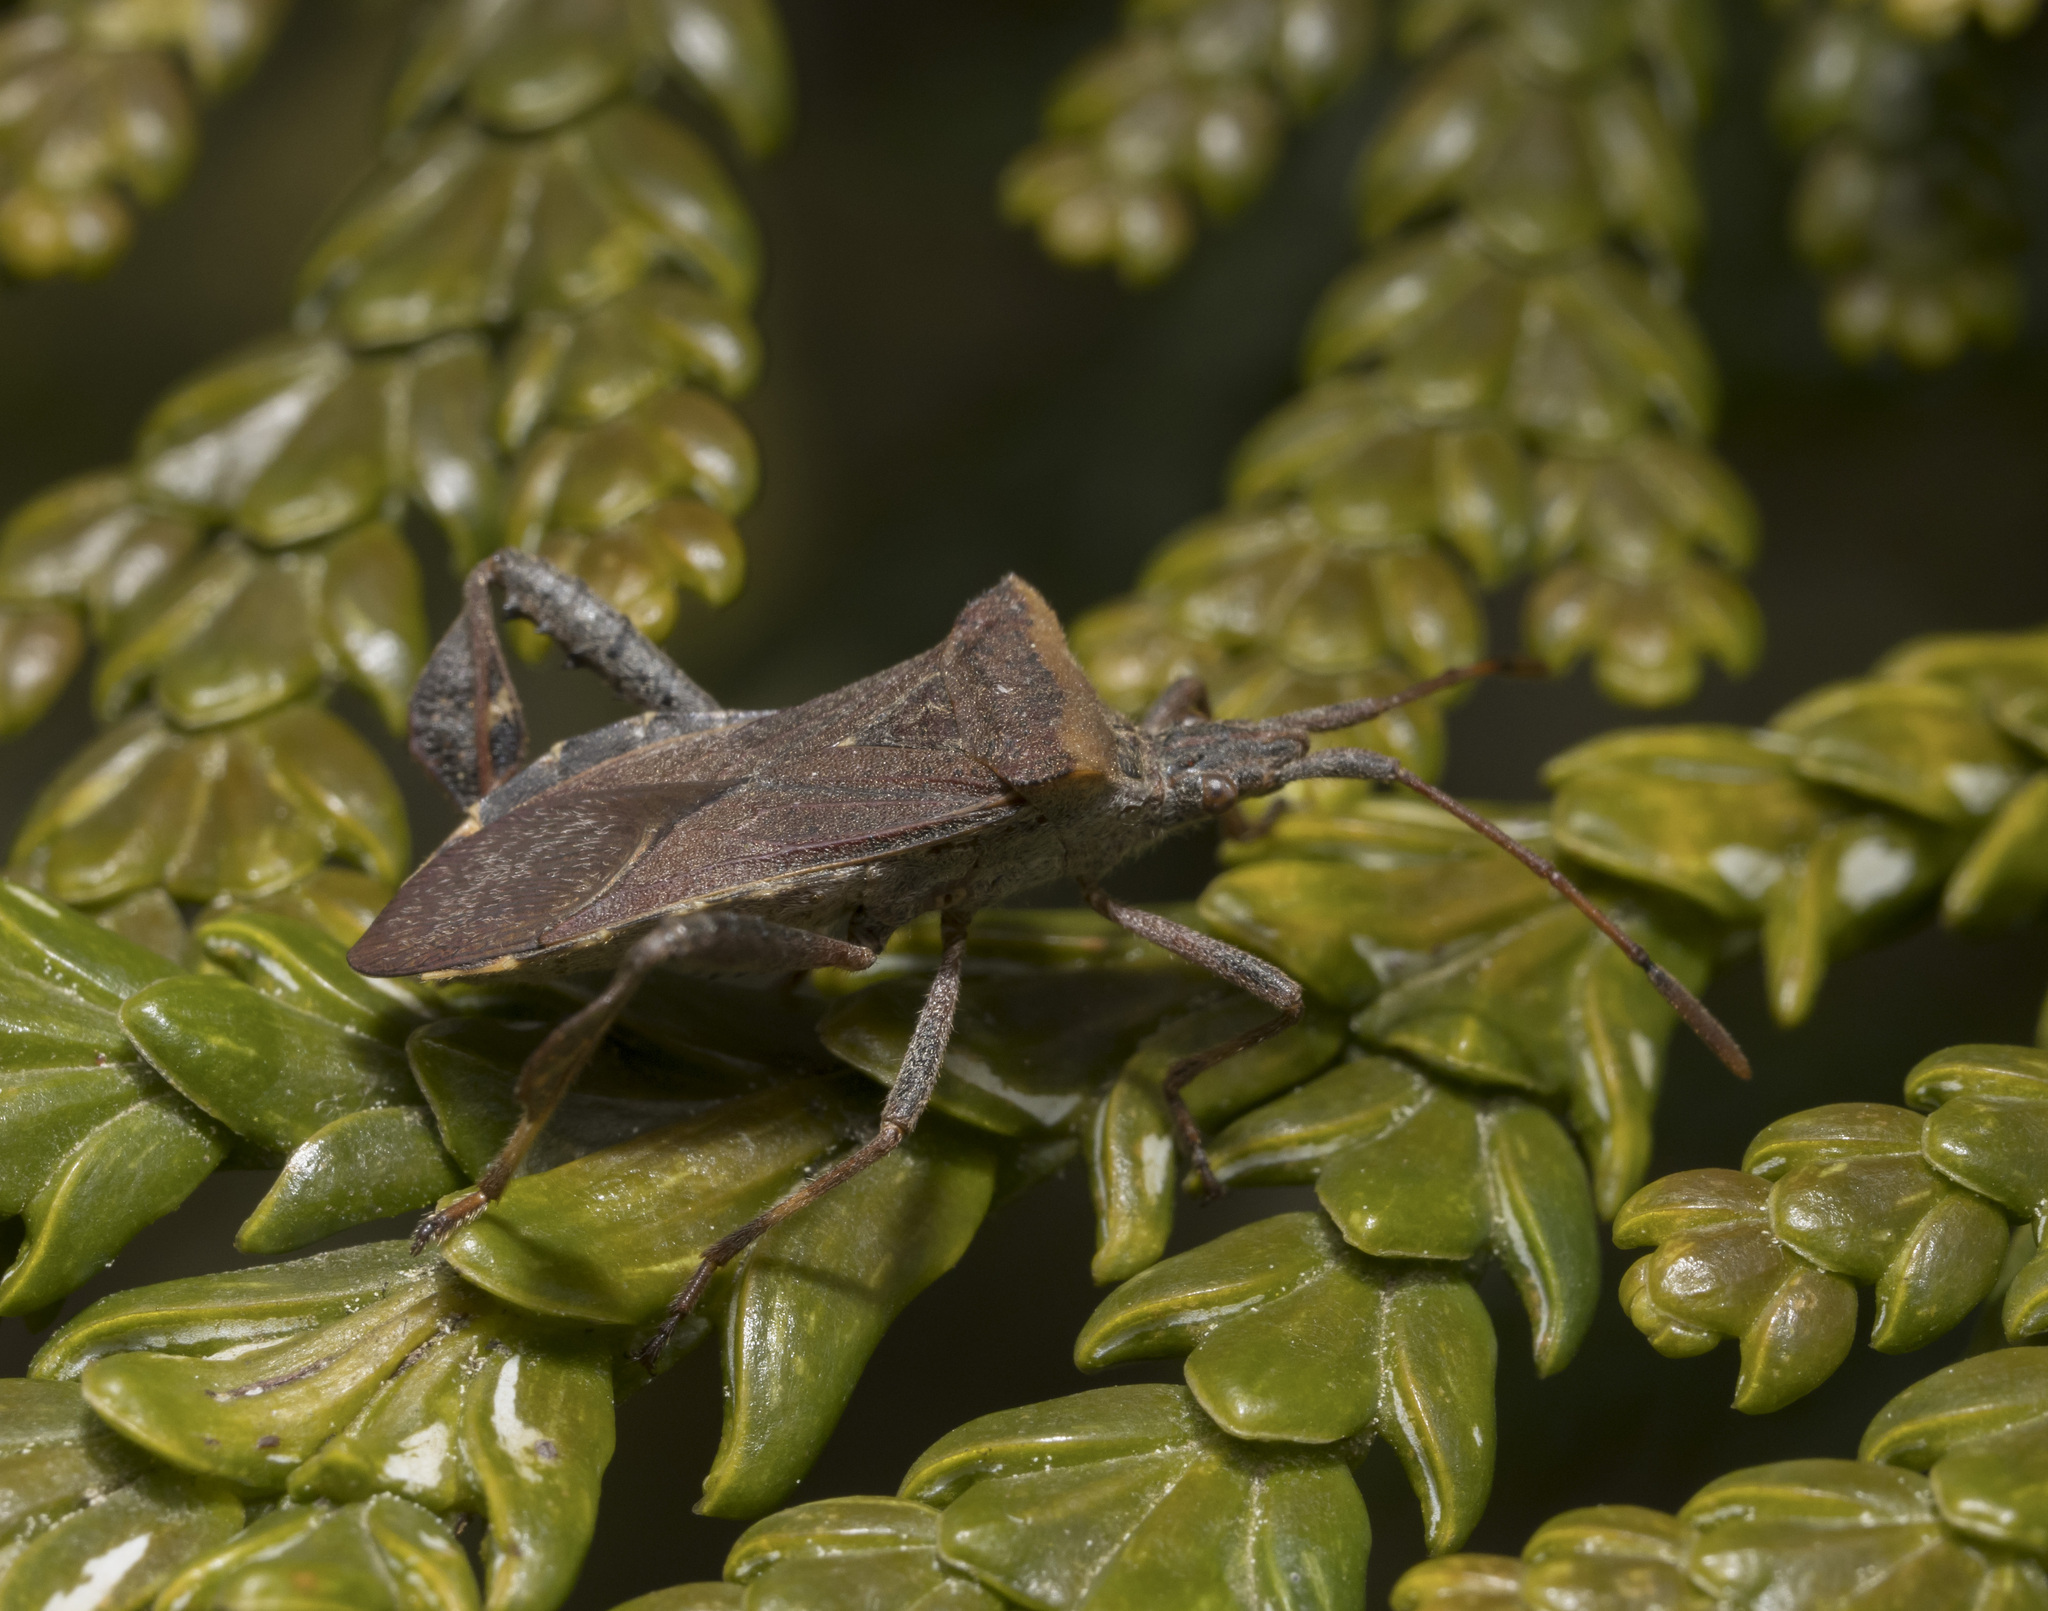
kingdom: Animalia
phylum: Arthropoda
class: Insecta
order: Hemiptera
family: Coreidae
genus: Leptoglossus
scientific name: Leptoglossus chilensis
